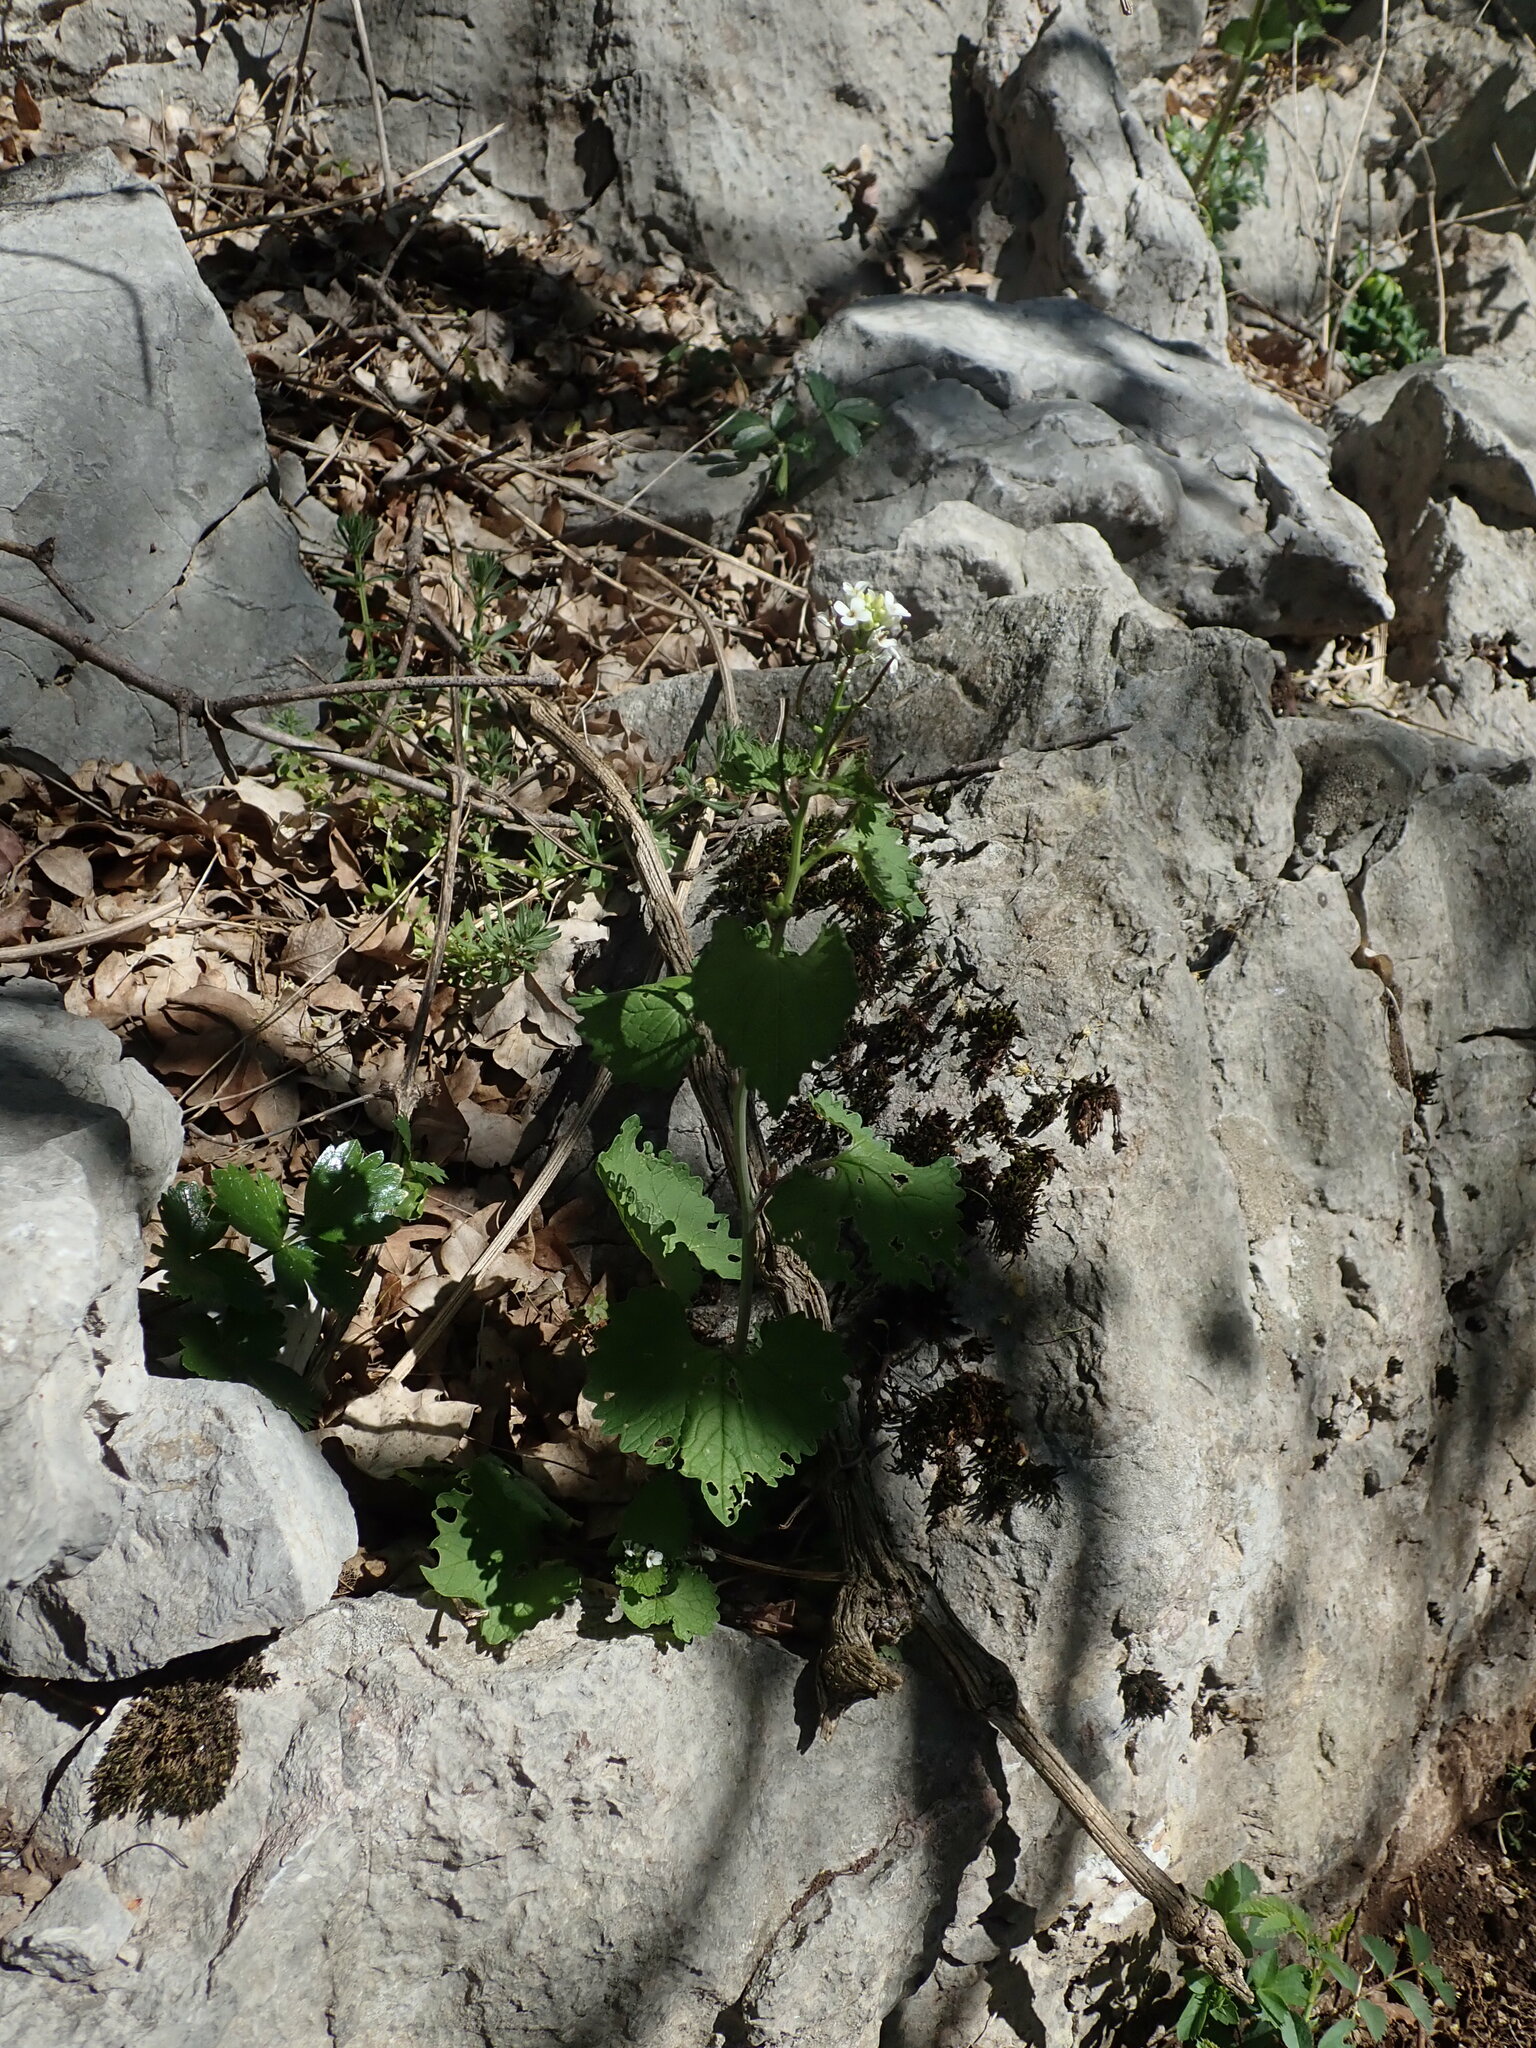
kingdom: Plantae
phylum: Tracheophyta
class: Magnoliopsida
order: Brassicales
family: Brassicaceae
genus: Alliaria
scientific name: Alliaria petiolata
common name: Garlic mustard
